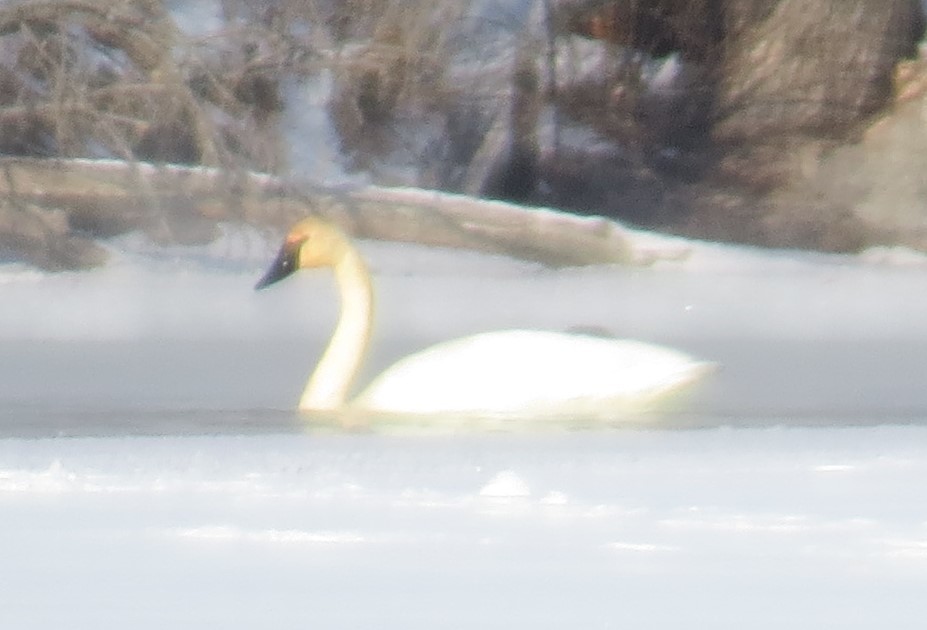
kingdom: Animalia
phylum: Chordata
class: Aves
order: Anseriformes
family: Anatidae
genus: Cygnus
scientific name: Cygnus buccinator
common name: Trumpeter swan
